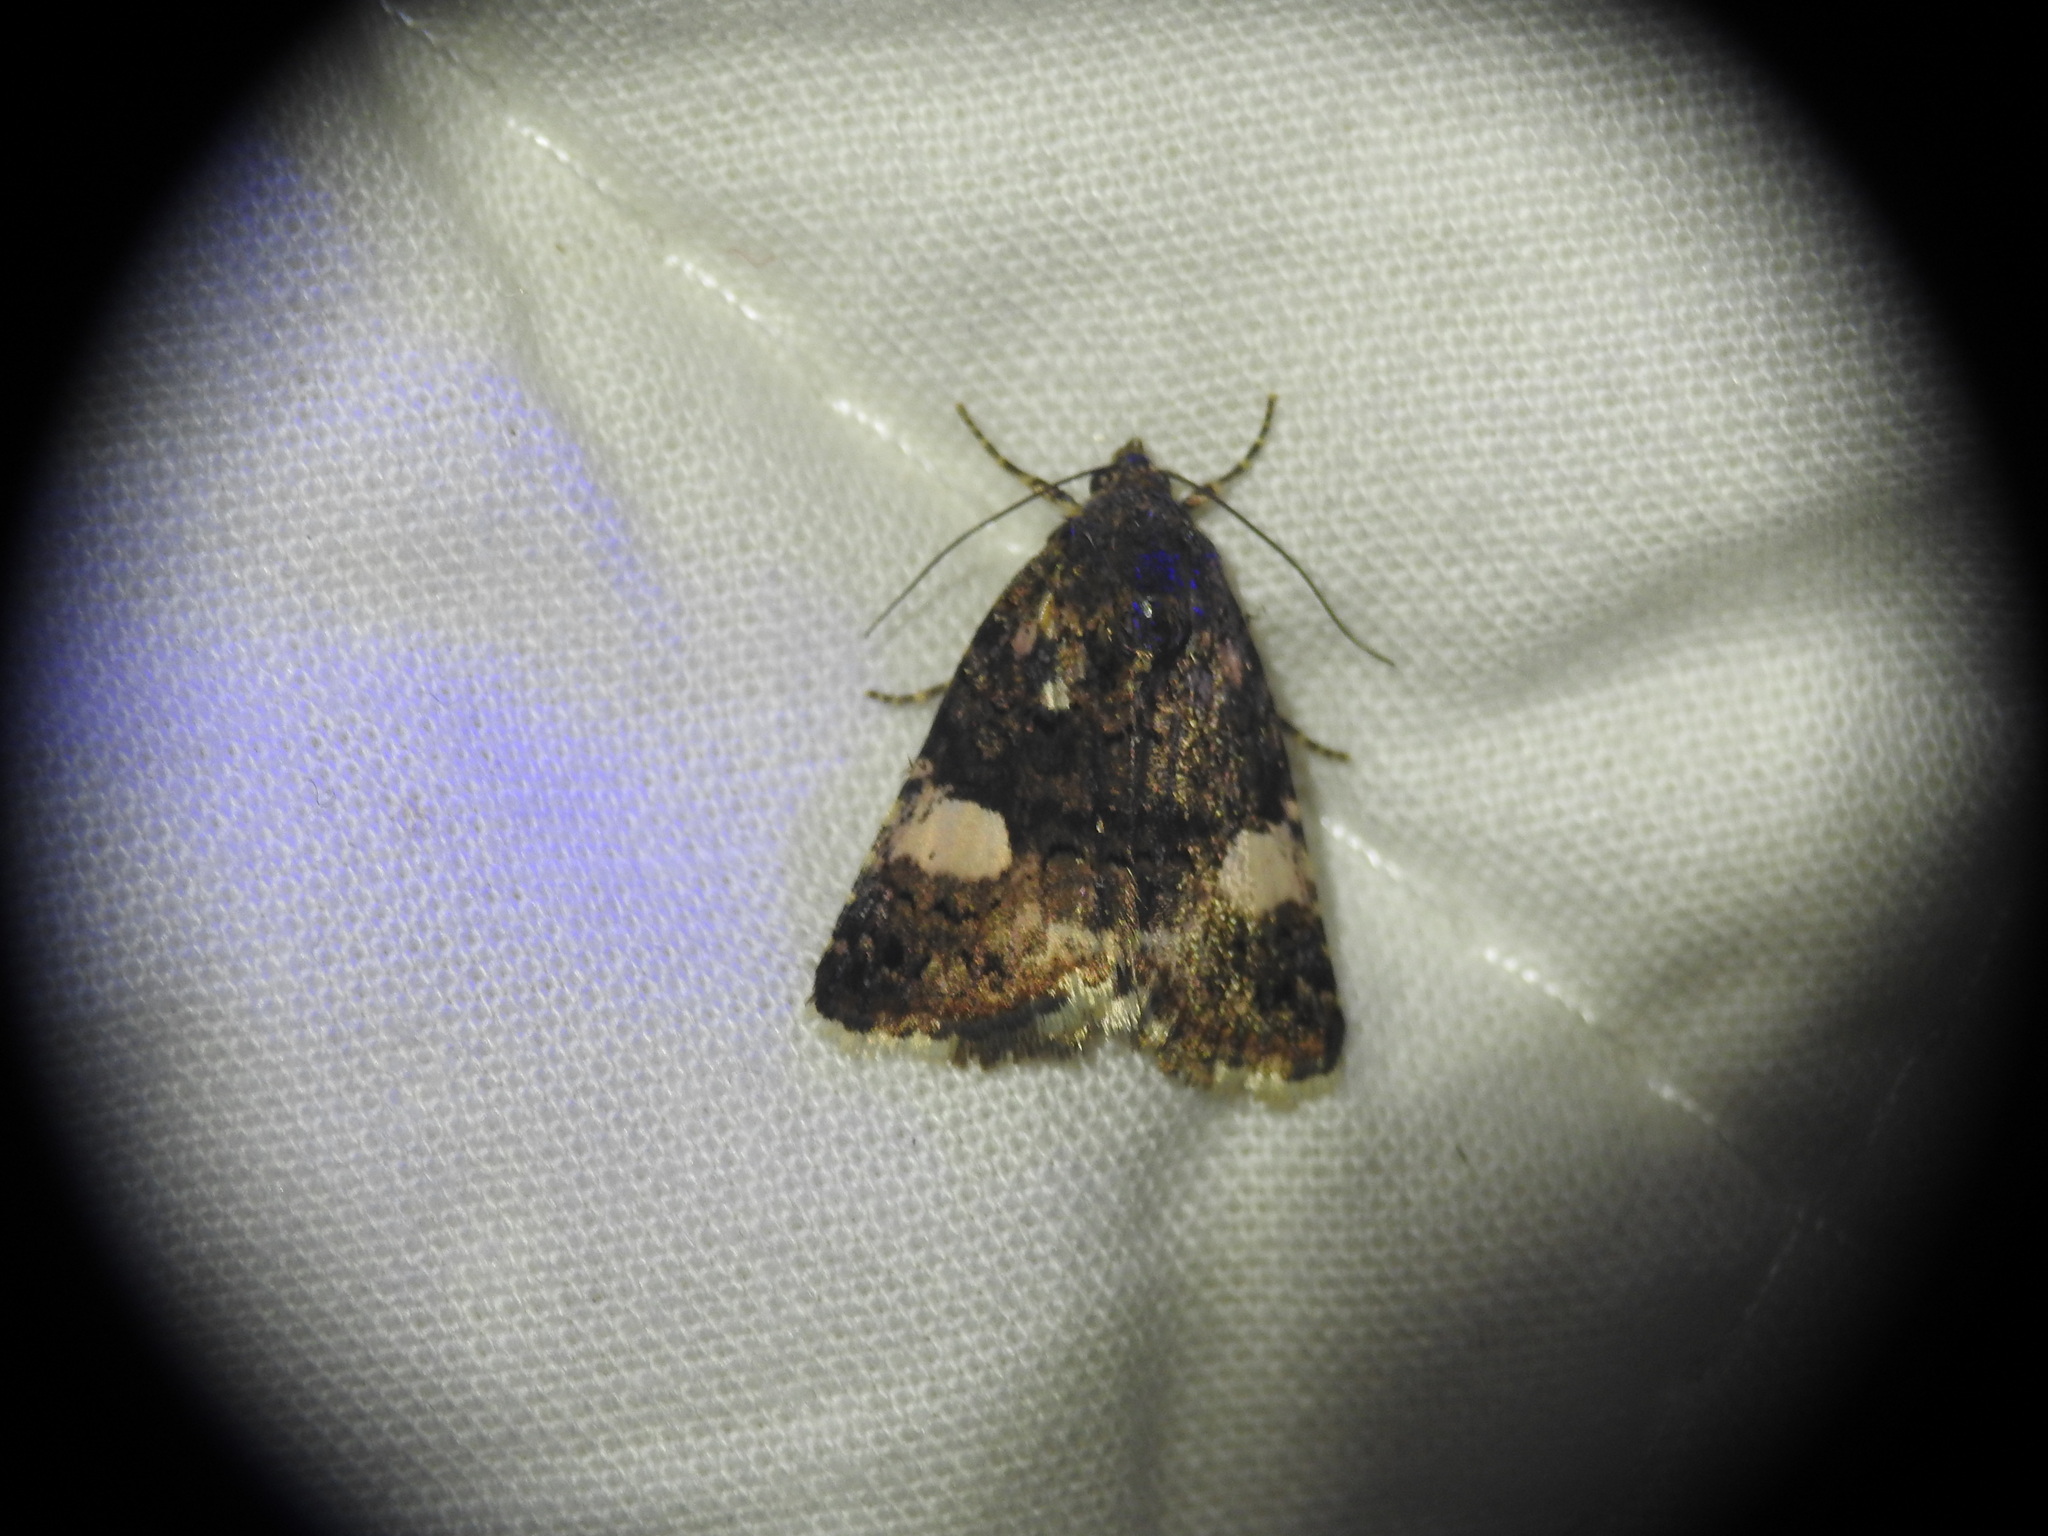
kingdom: Animalia
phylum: Arthropoda
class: Insecta
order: Lepidoptera
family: Erebidae
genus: Tyta
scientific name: Tyta luctuosa
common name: Four-spotted
